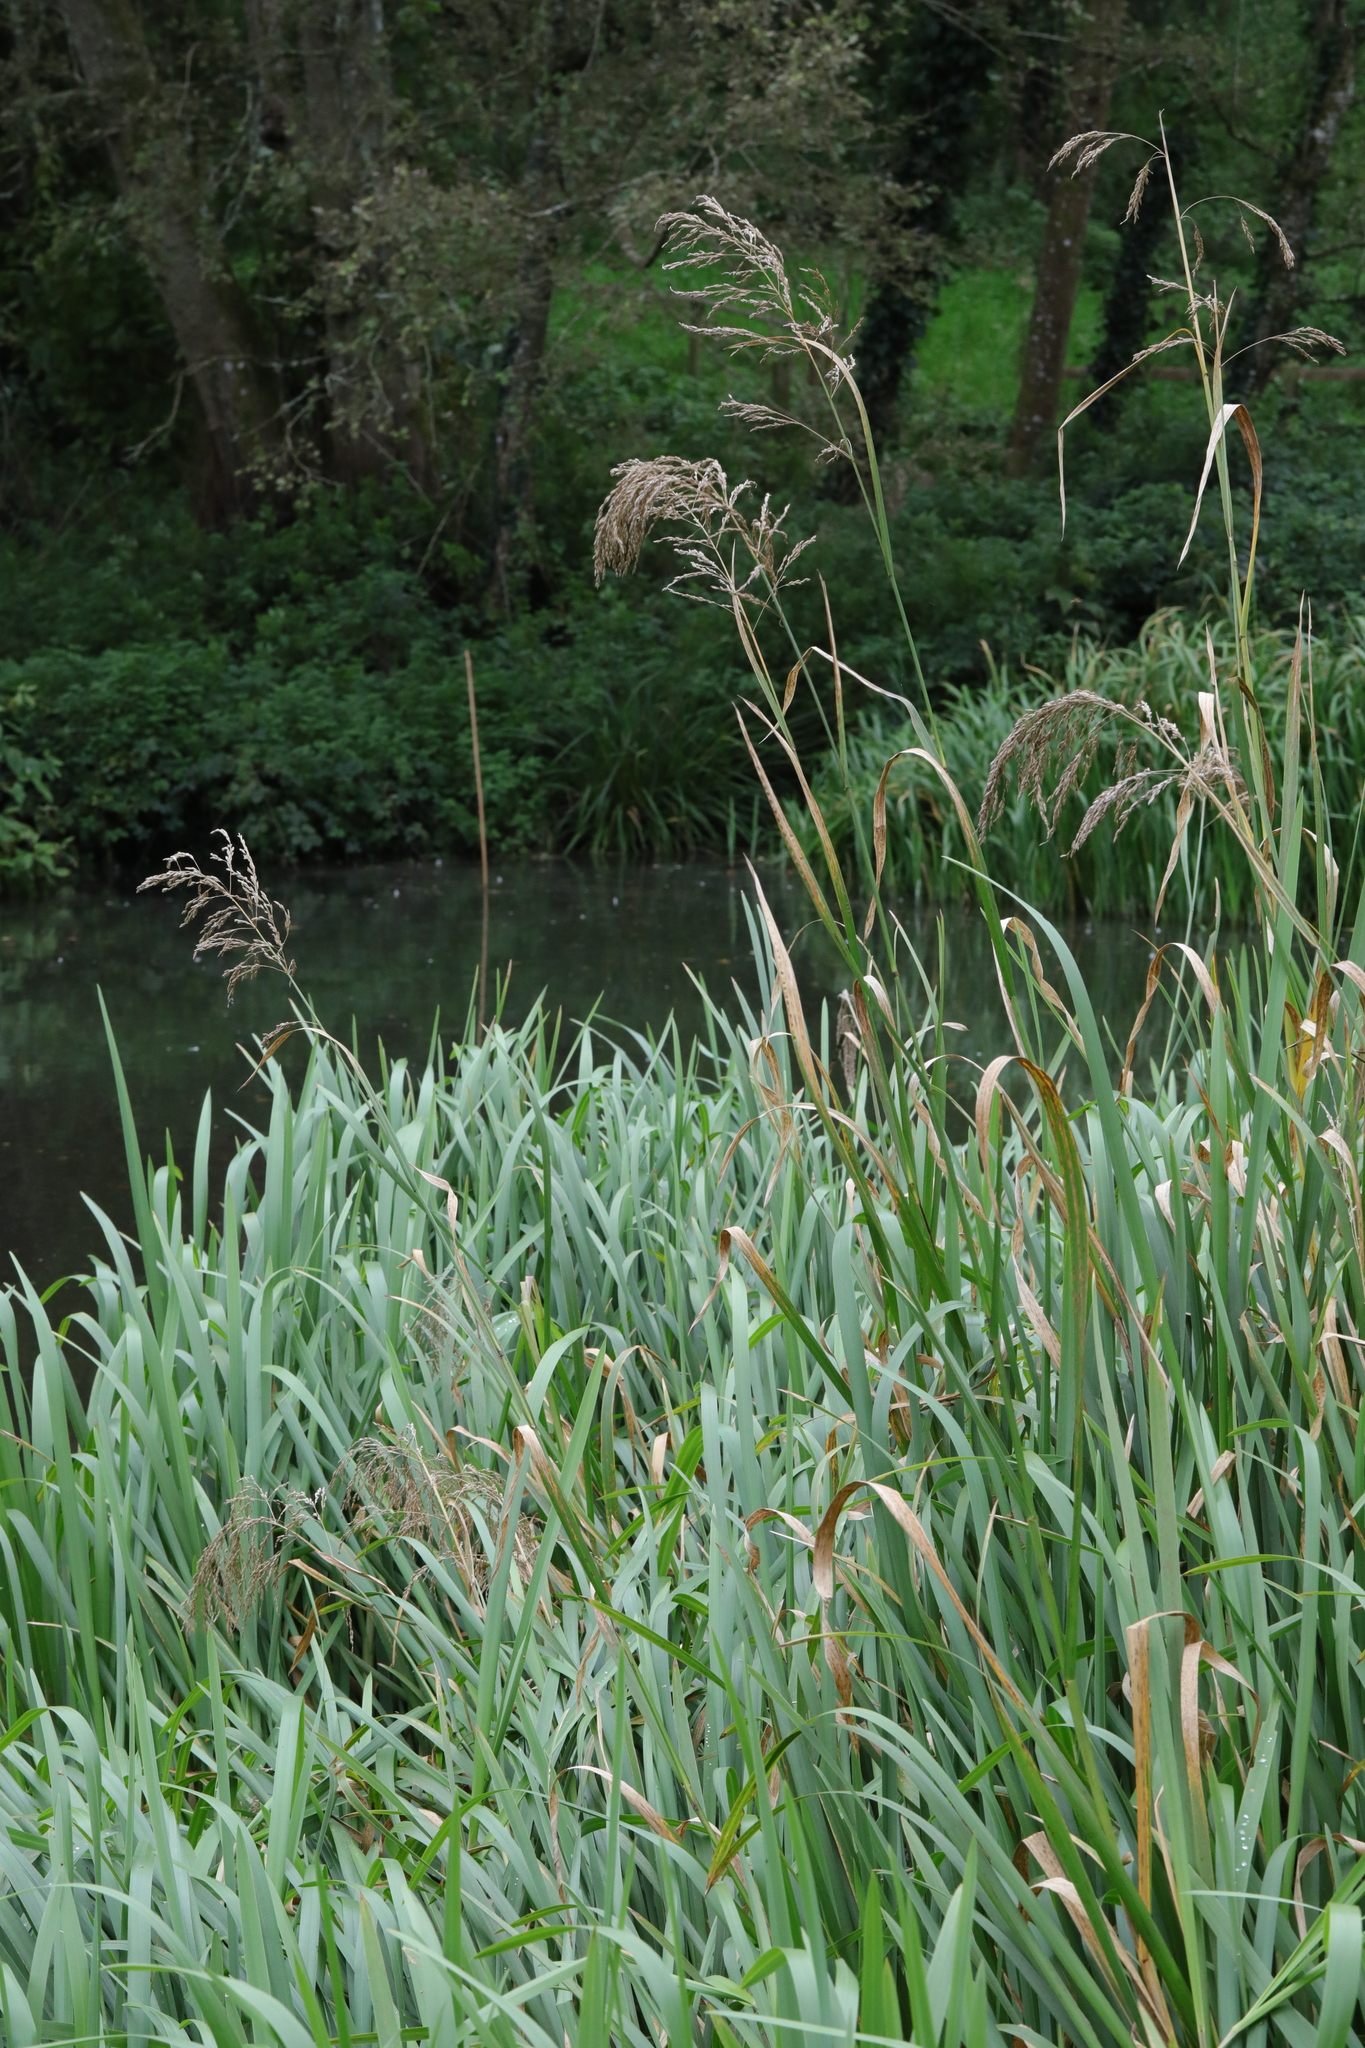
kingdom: Plantae
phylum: Tracheophyta
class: Liliopsida
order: Poales
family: Poaceae
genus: Glyceria
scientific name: Glyceria maxima
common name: Reed mannagrass
